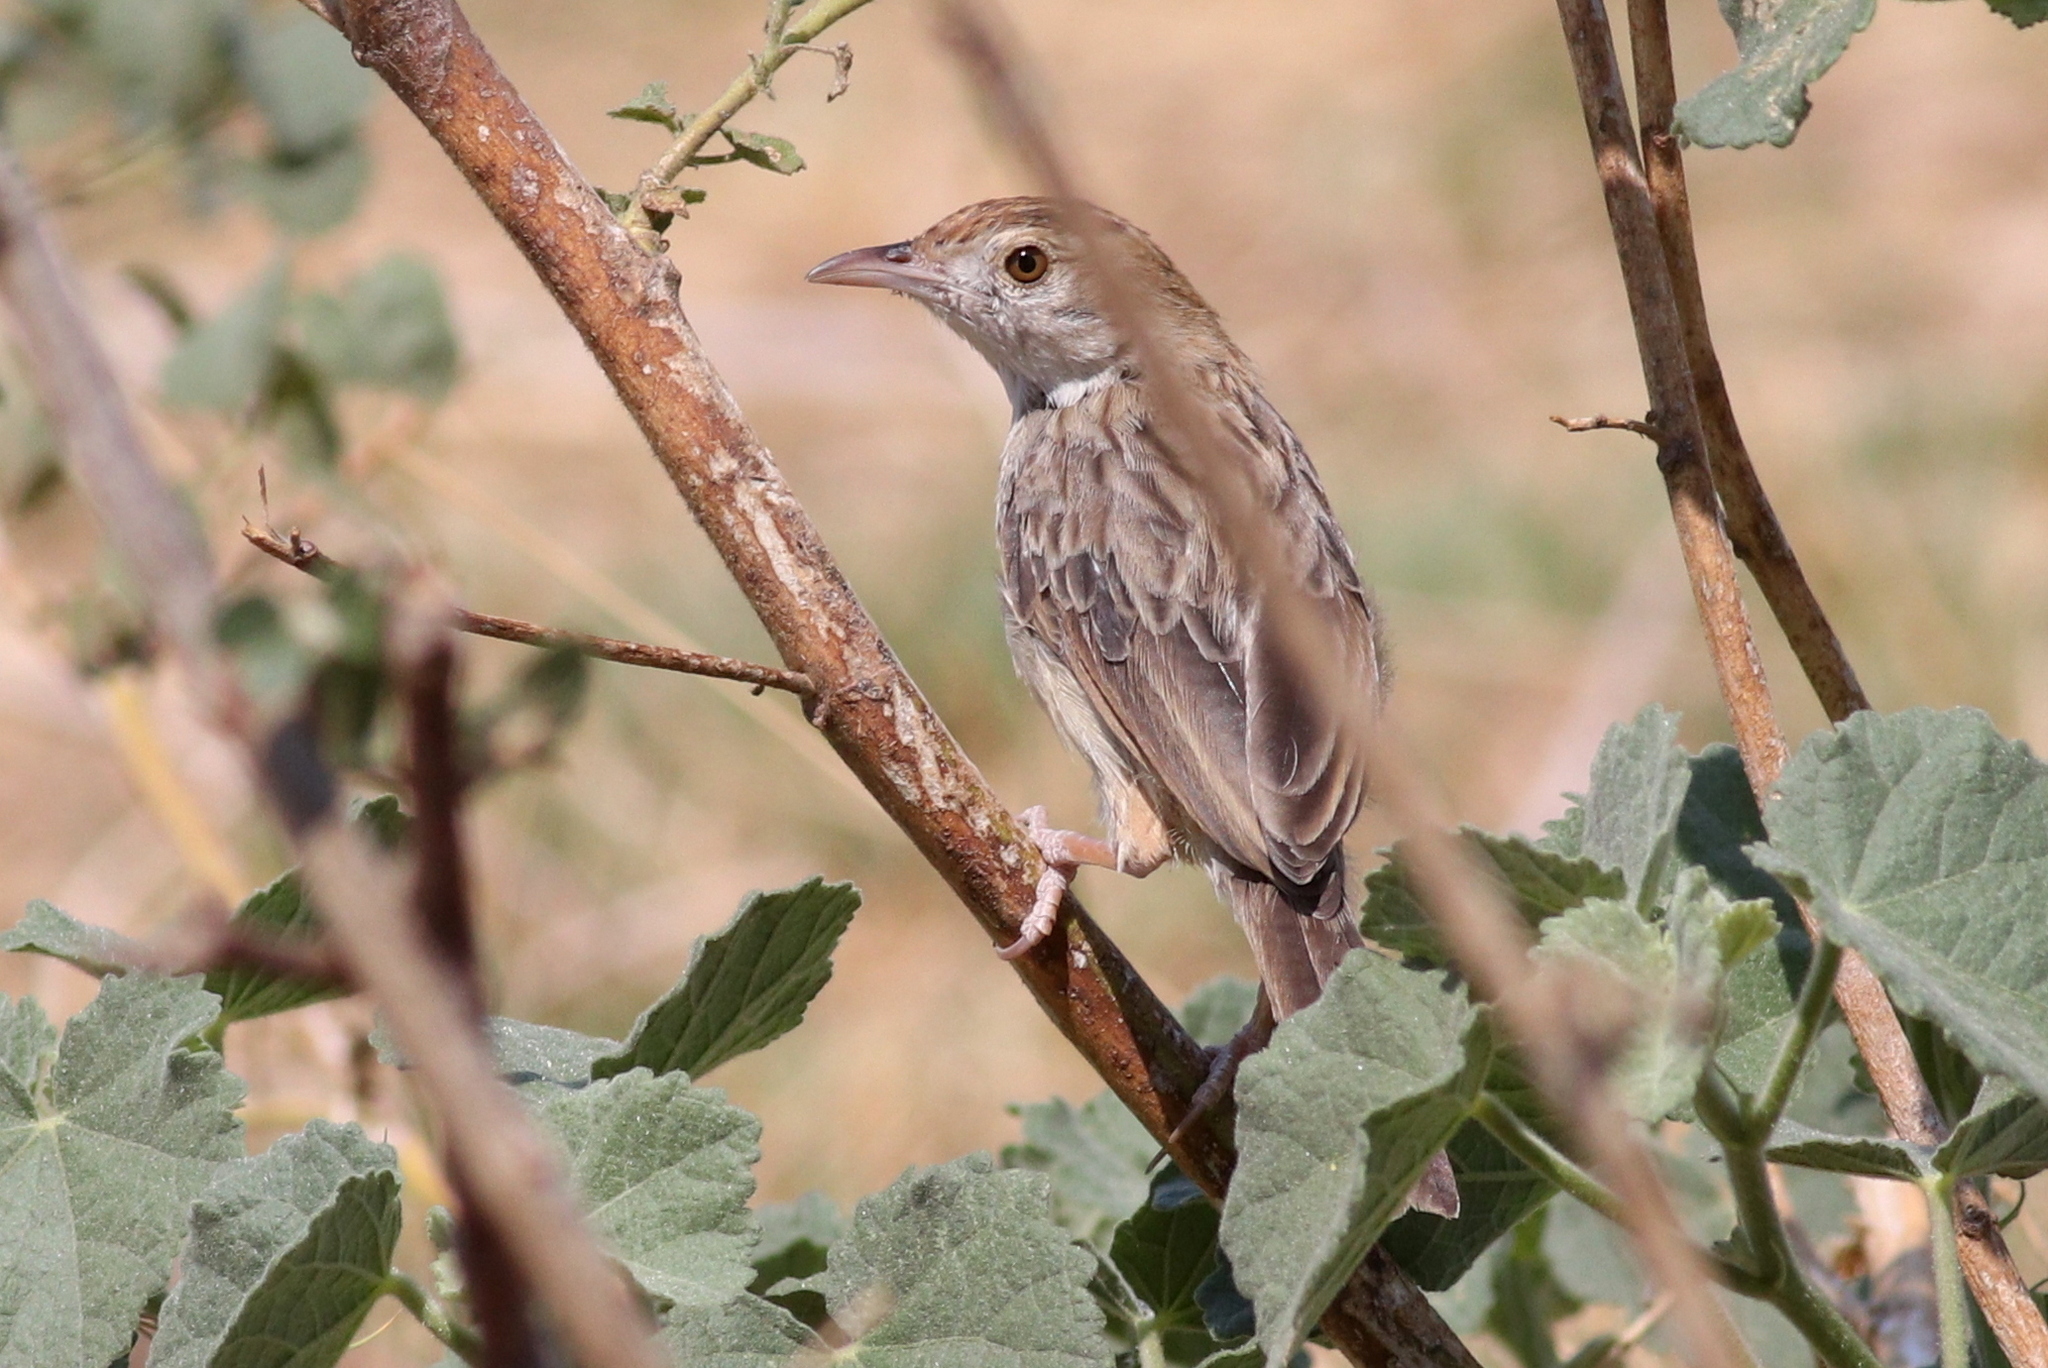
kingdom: Animalia
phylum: Chordata
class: Aves
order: Passeriformes
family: Cisticolidae
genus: Cisticola
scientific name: Cisticola chiniana
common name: Rattling cisticola
